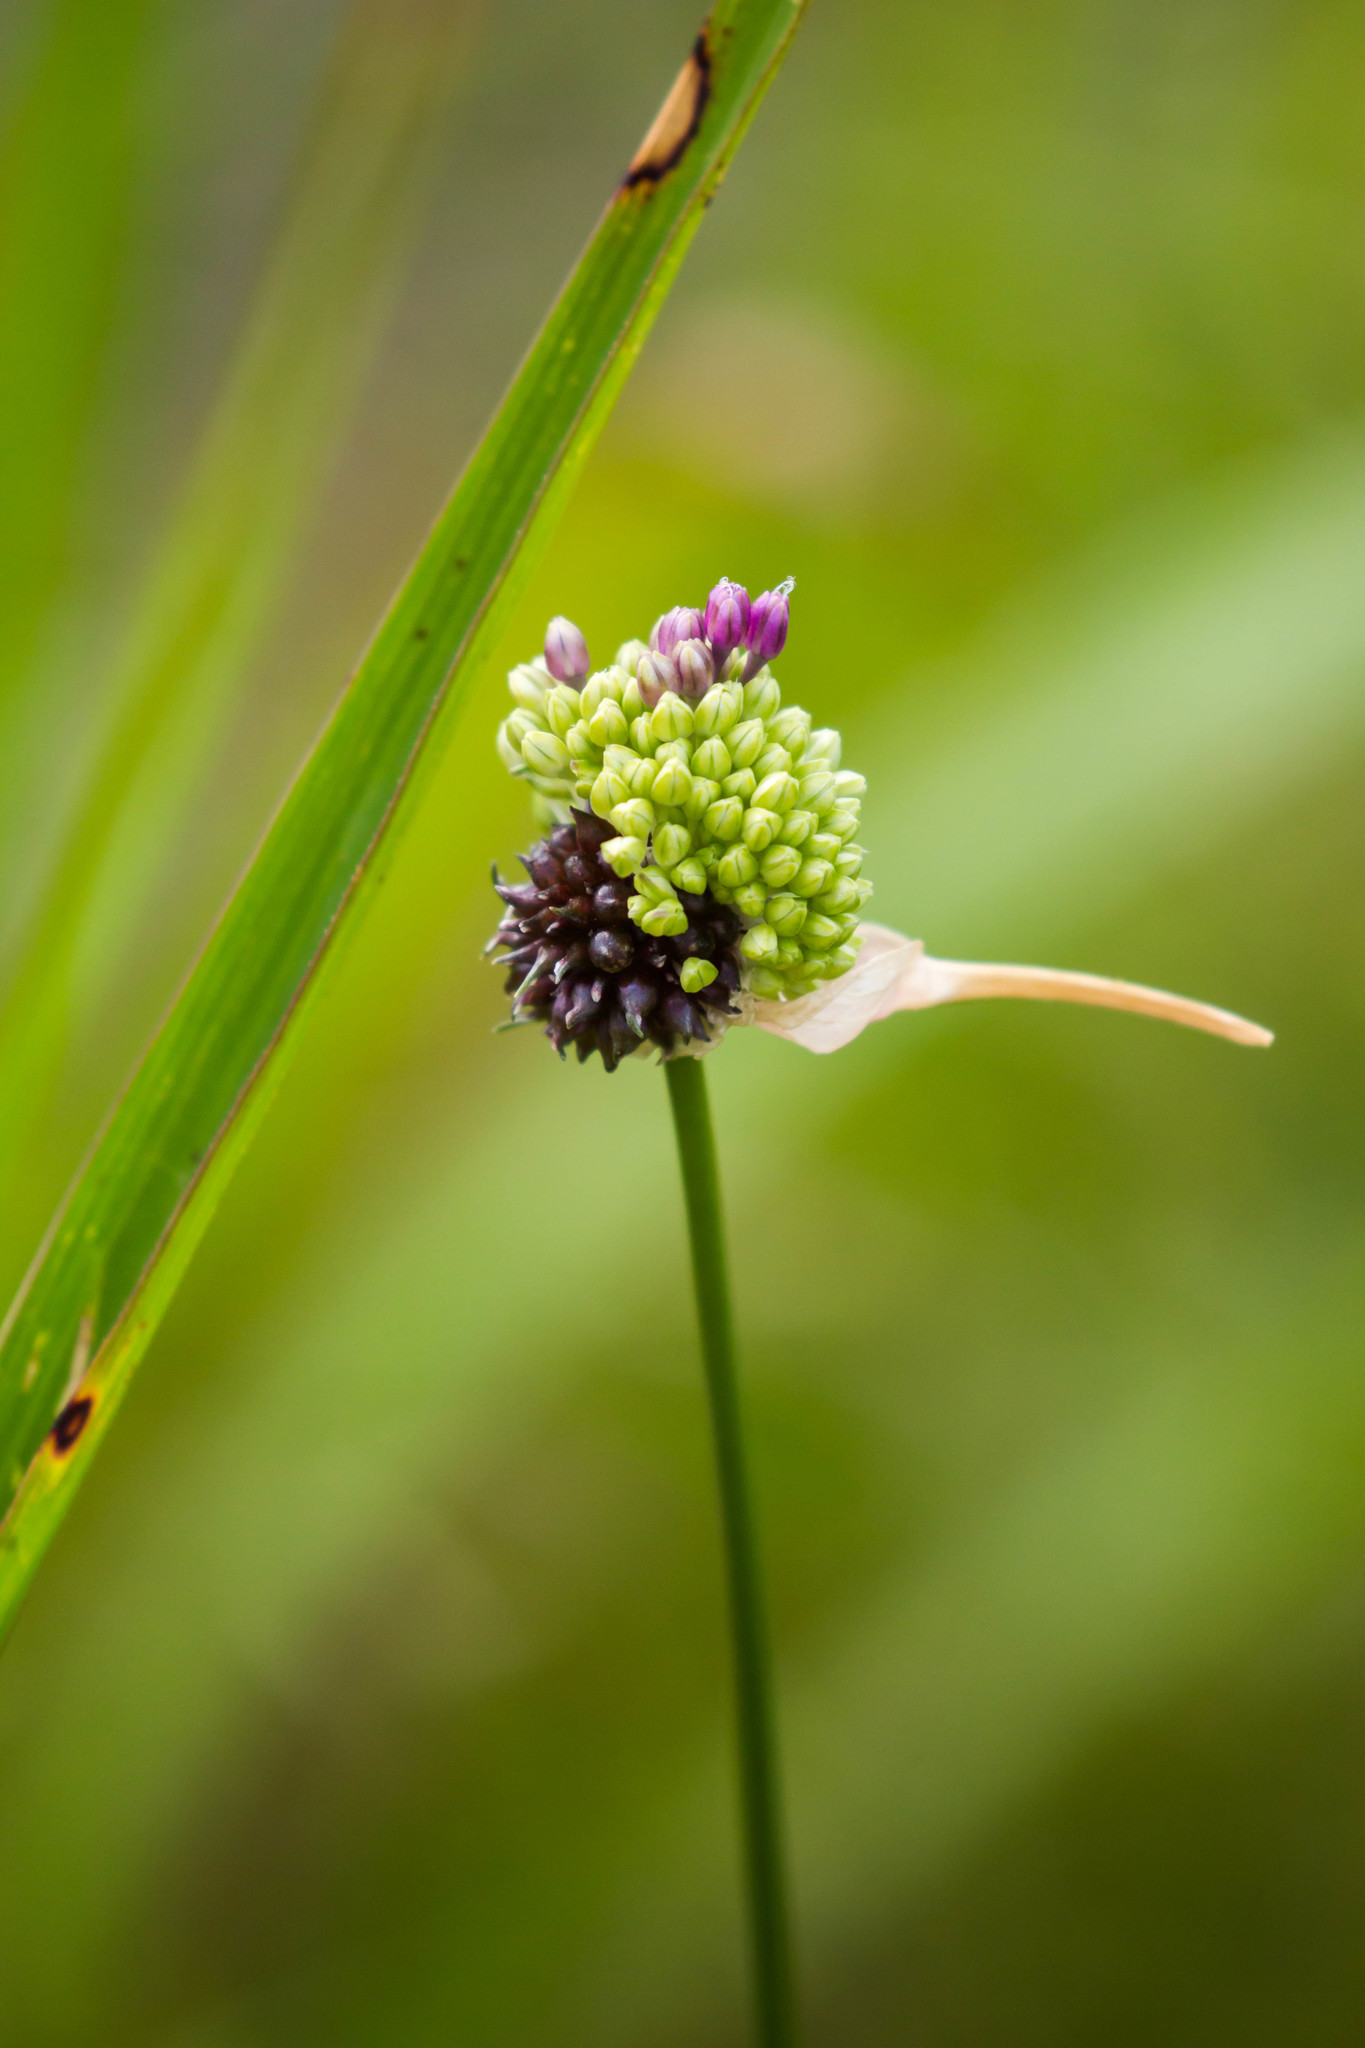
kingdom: Plantae
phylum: Tracheophyta
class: Liliopsida
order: Asparagales
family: Amaryllidaceae
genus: Allium
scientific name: Allium vineale
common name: Crow garlic
